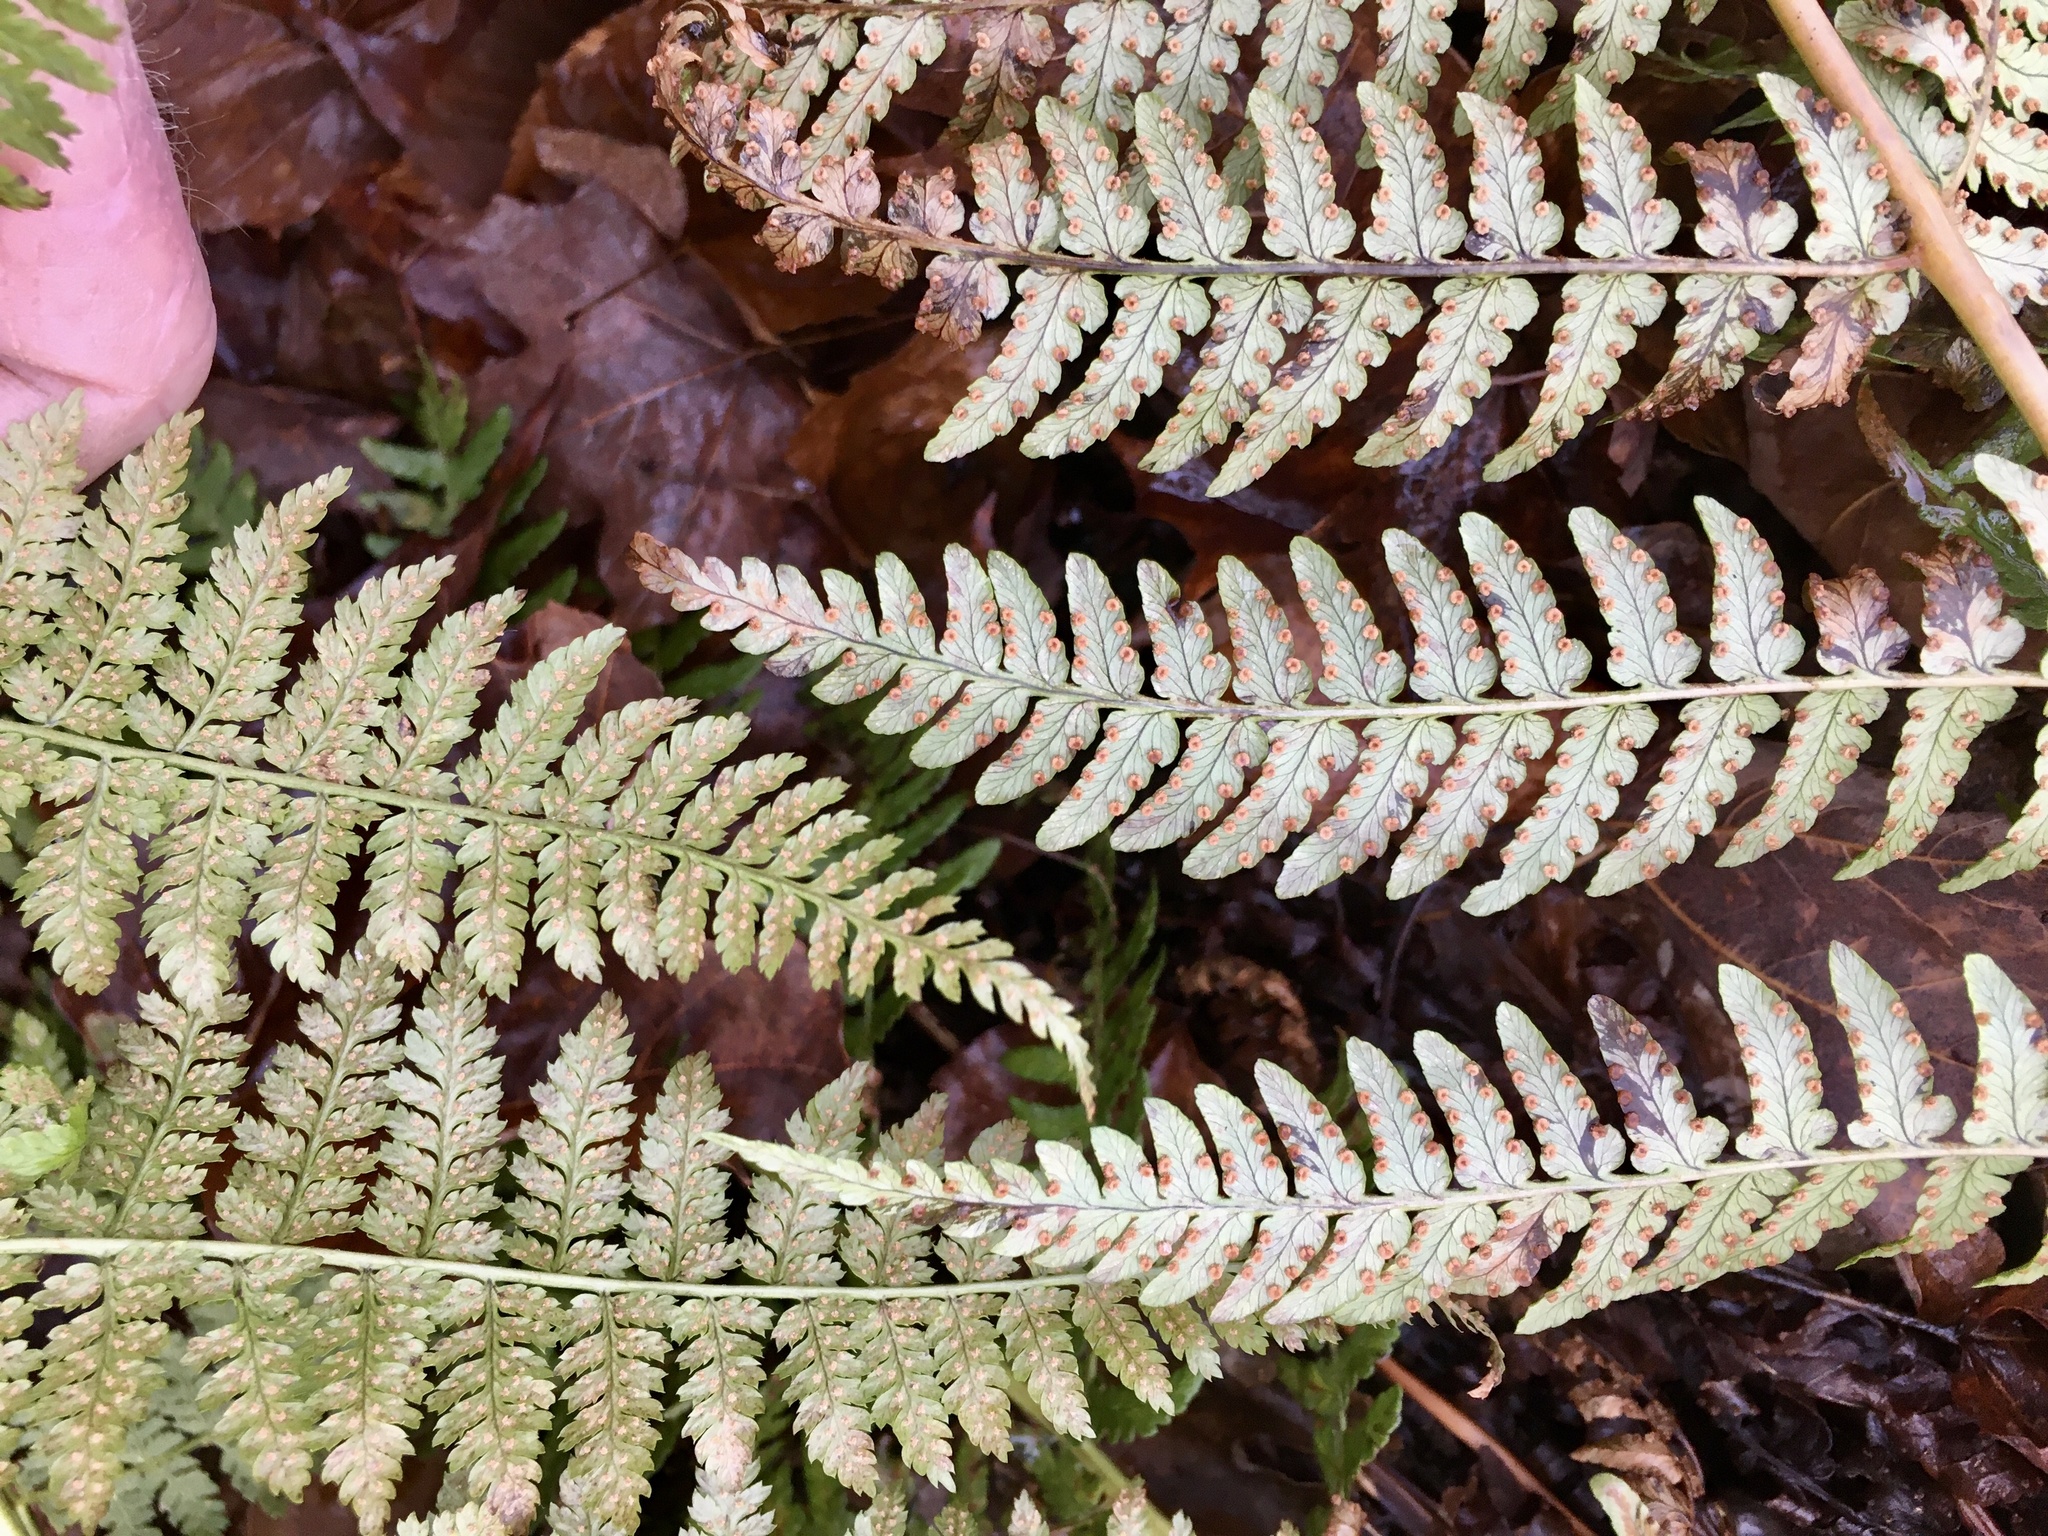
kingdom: Plantae
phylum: Tracheophyta
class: Polypodiopsida
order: Polypodiales
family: Dryopteridaceae
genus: Dryopteris
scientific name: Dryopteris intermedia
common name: Evergreen wood fern
